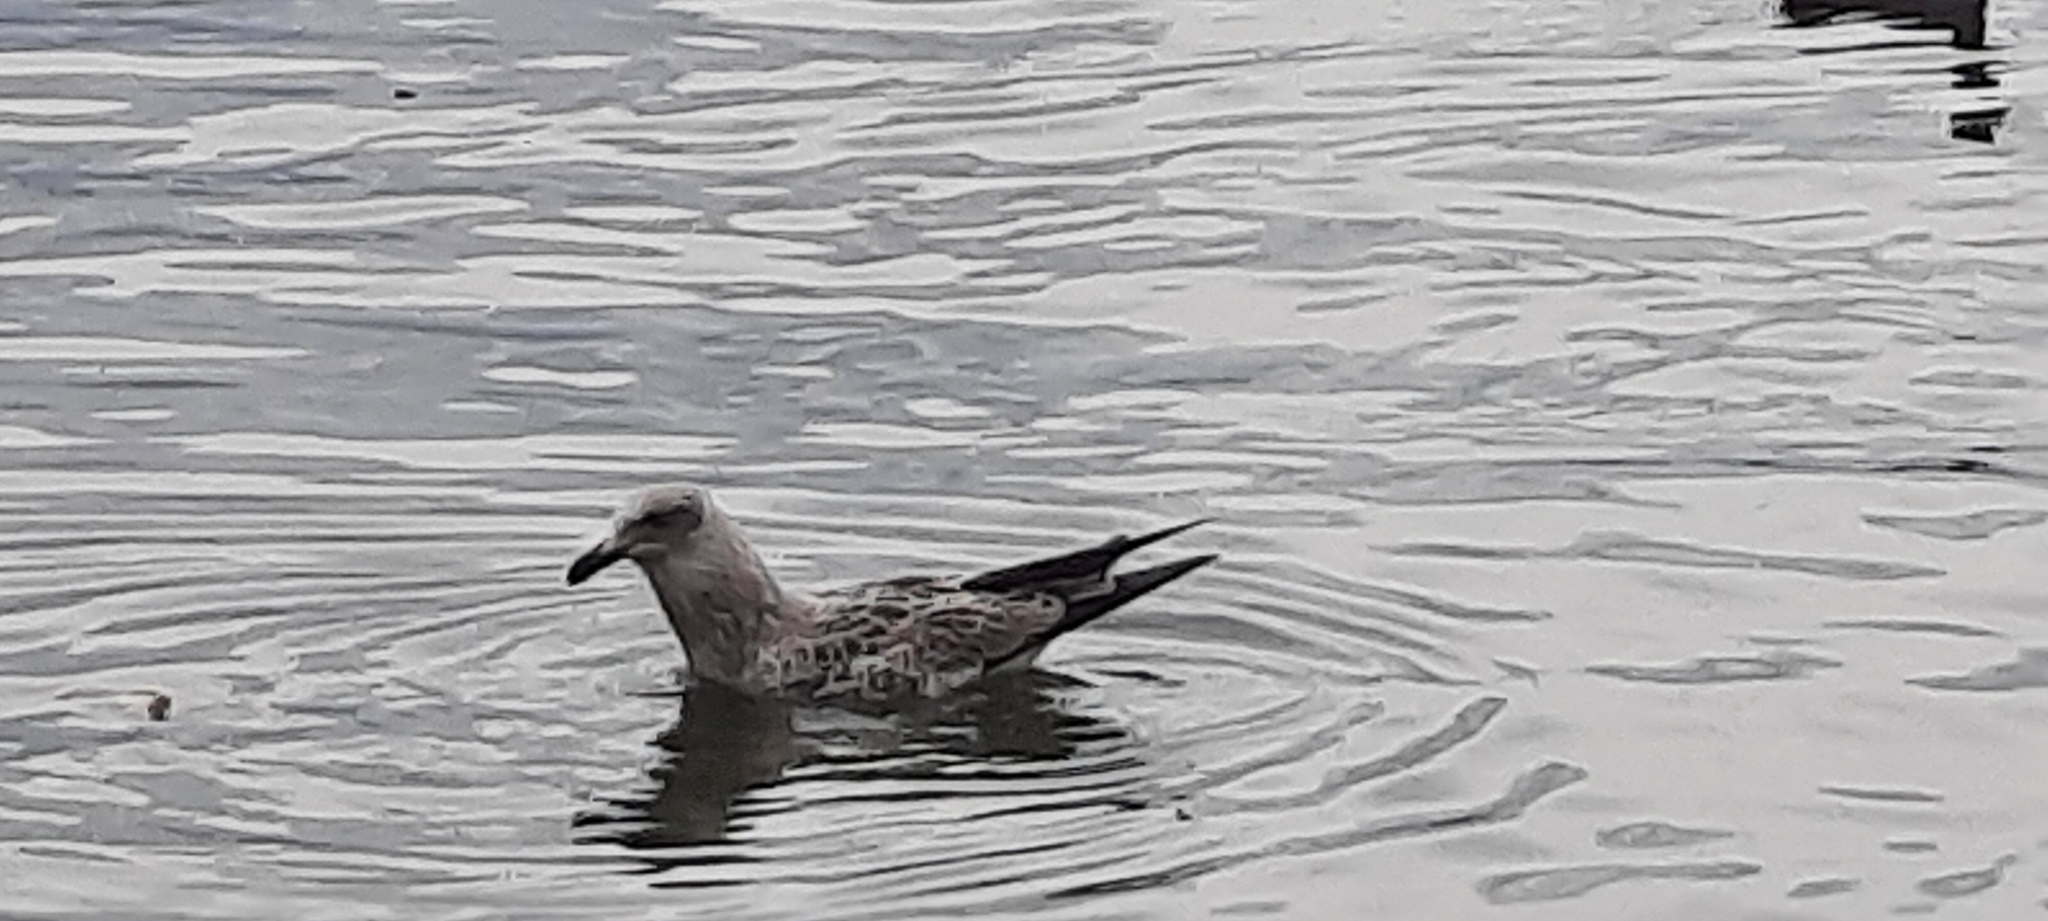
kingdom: Animalia
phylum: Chordata
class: Aves
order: Charadriiformes
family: Laridae
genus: Larus
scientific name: Larus michahellis
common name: Yellow-legged gull
